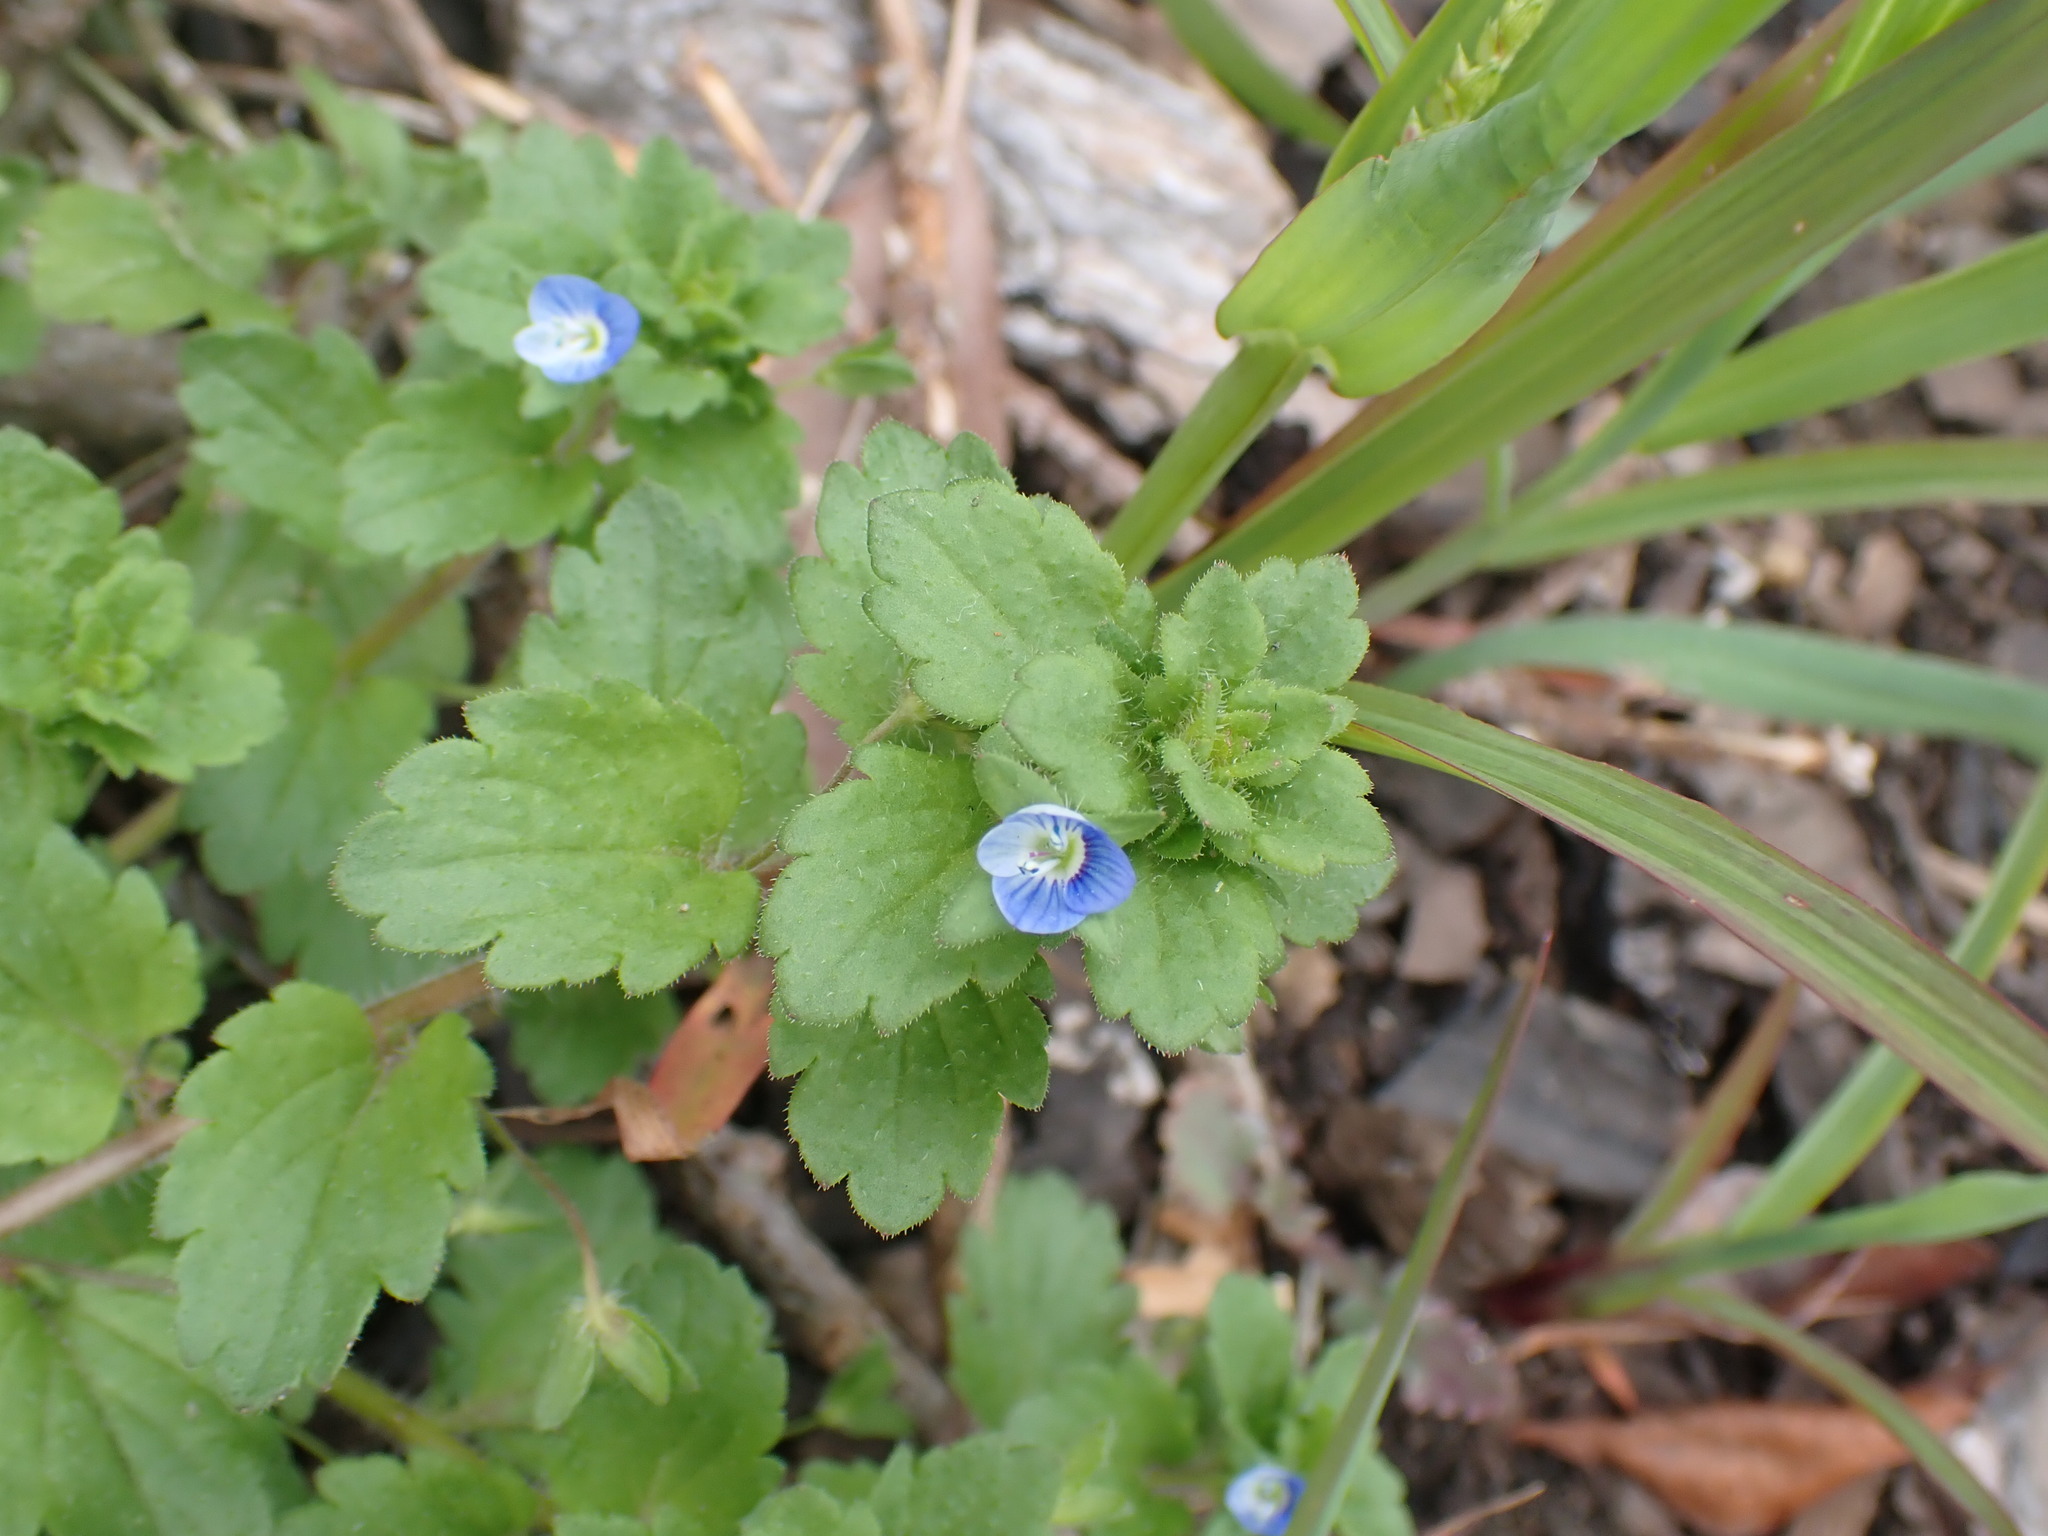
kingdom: Plantae
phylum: Tracheophyta
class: Magnoliopsida
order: Lamiales
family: Plantaginaceae
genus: Veronica
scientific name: Veronica persica
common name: Common field-speedwell
